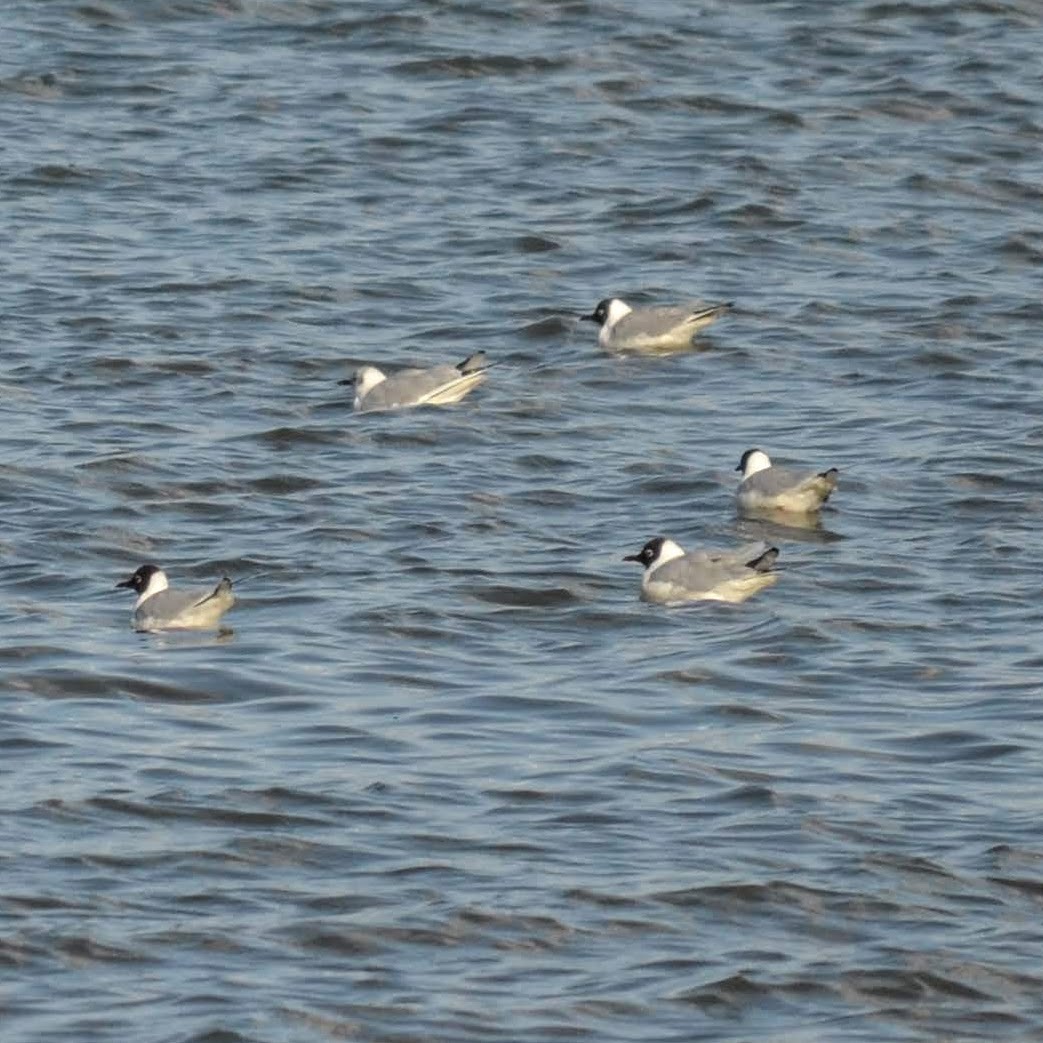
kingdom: Animalia
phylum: Chordata
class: Aves
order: Charadriiformes
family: Laridae
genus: Chroicocephalus
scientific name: Chroicocephalus ridibundus
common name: Black-headed gull
